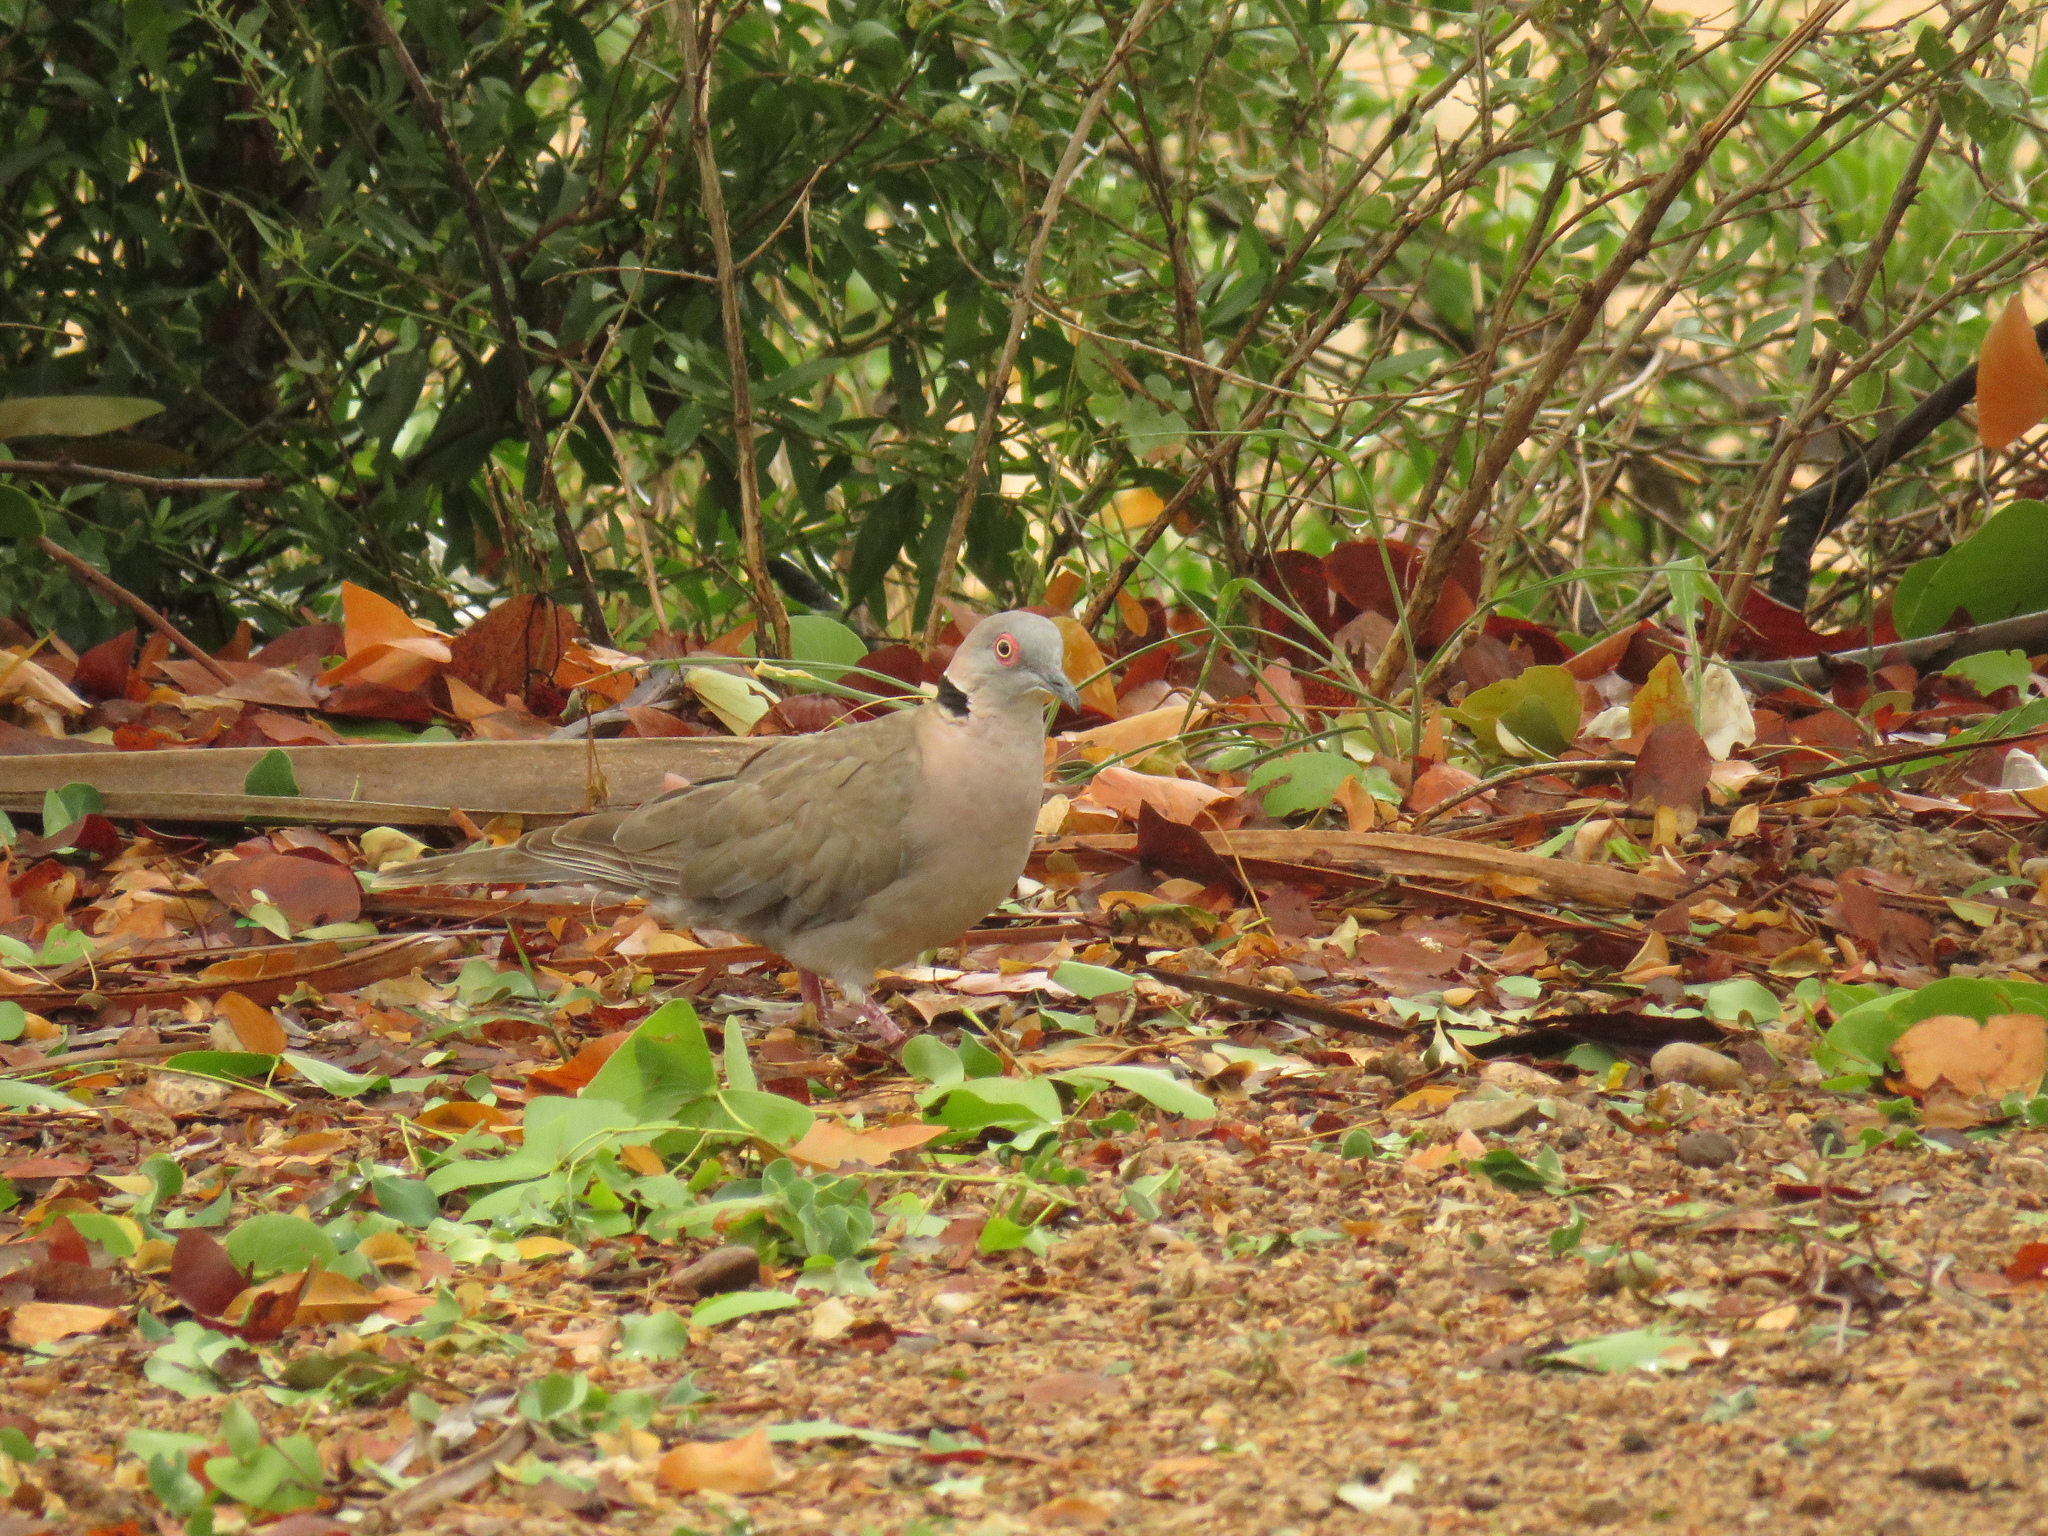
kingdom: Animalia
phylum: Chordata
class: Aves
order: Columbiformes
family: Columbidae
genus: Streptopelia
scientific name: Streptopelia decipiens
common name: Mourning collared dove
